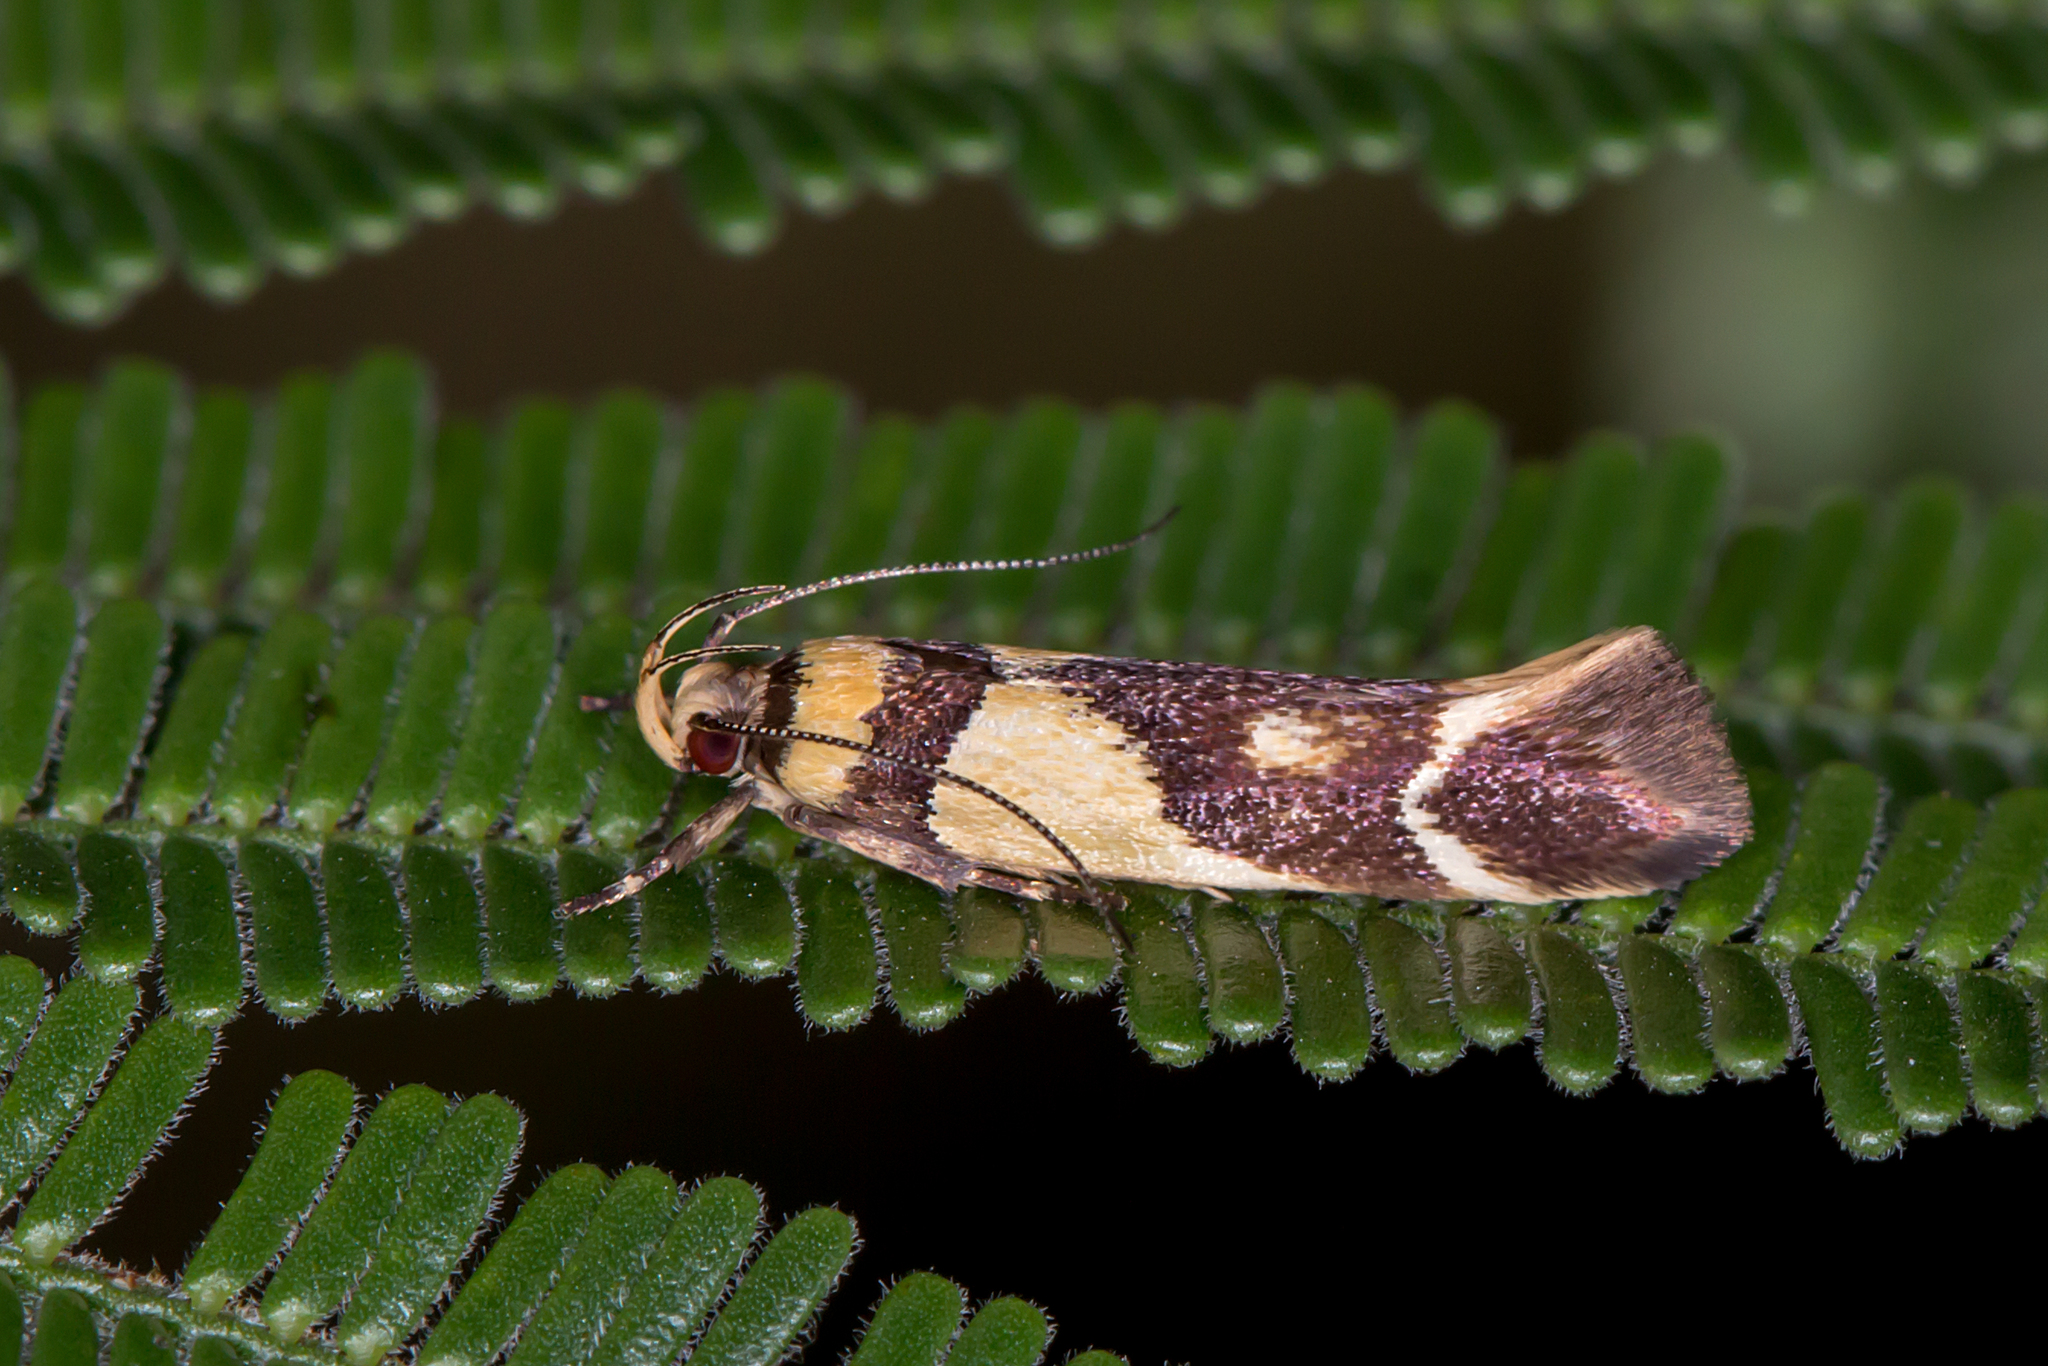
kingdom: Animalia
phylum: Arthropoda
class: Insecta
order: Lepidoptera
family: Cosmopterigidae
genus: Macrobathra
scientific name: Macrobathra chrysotoxa
